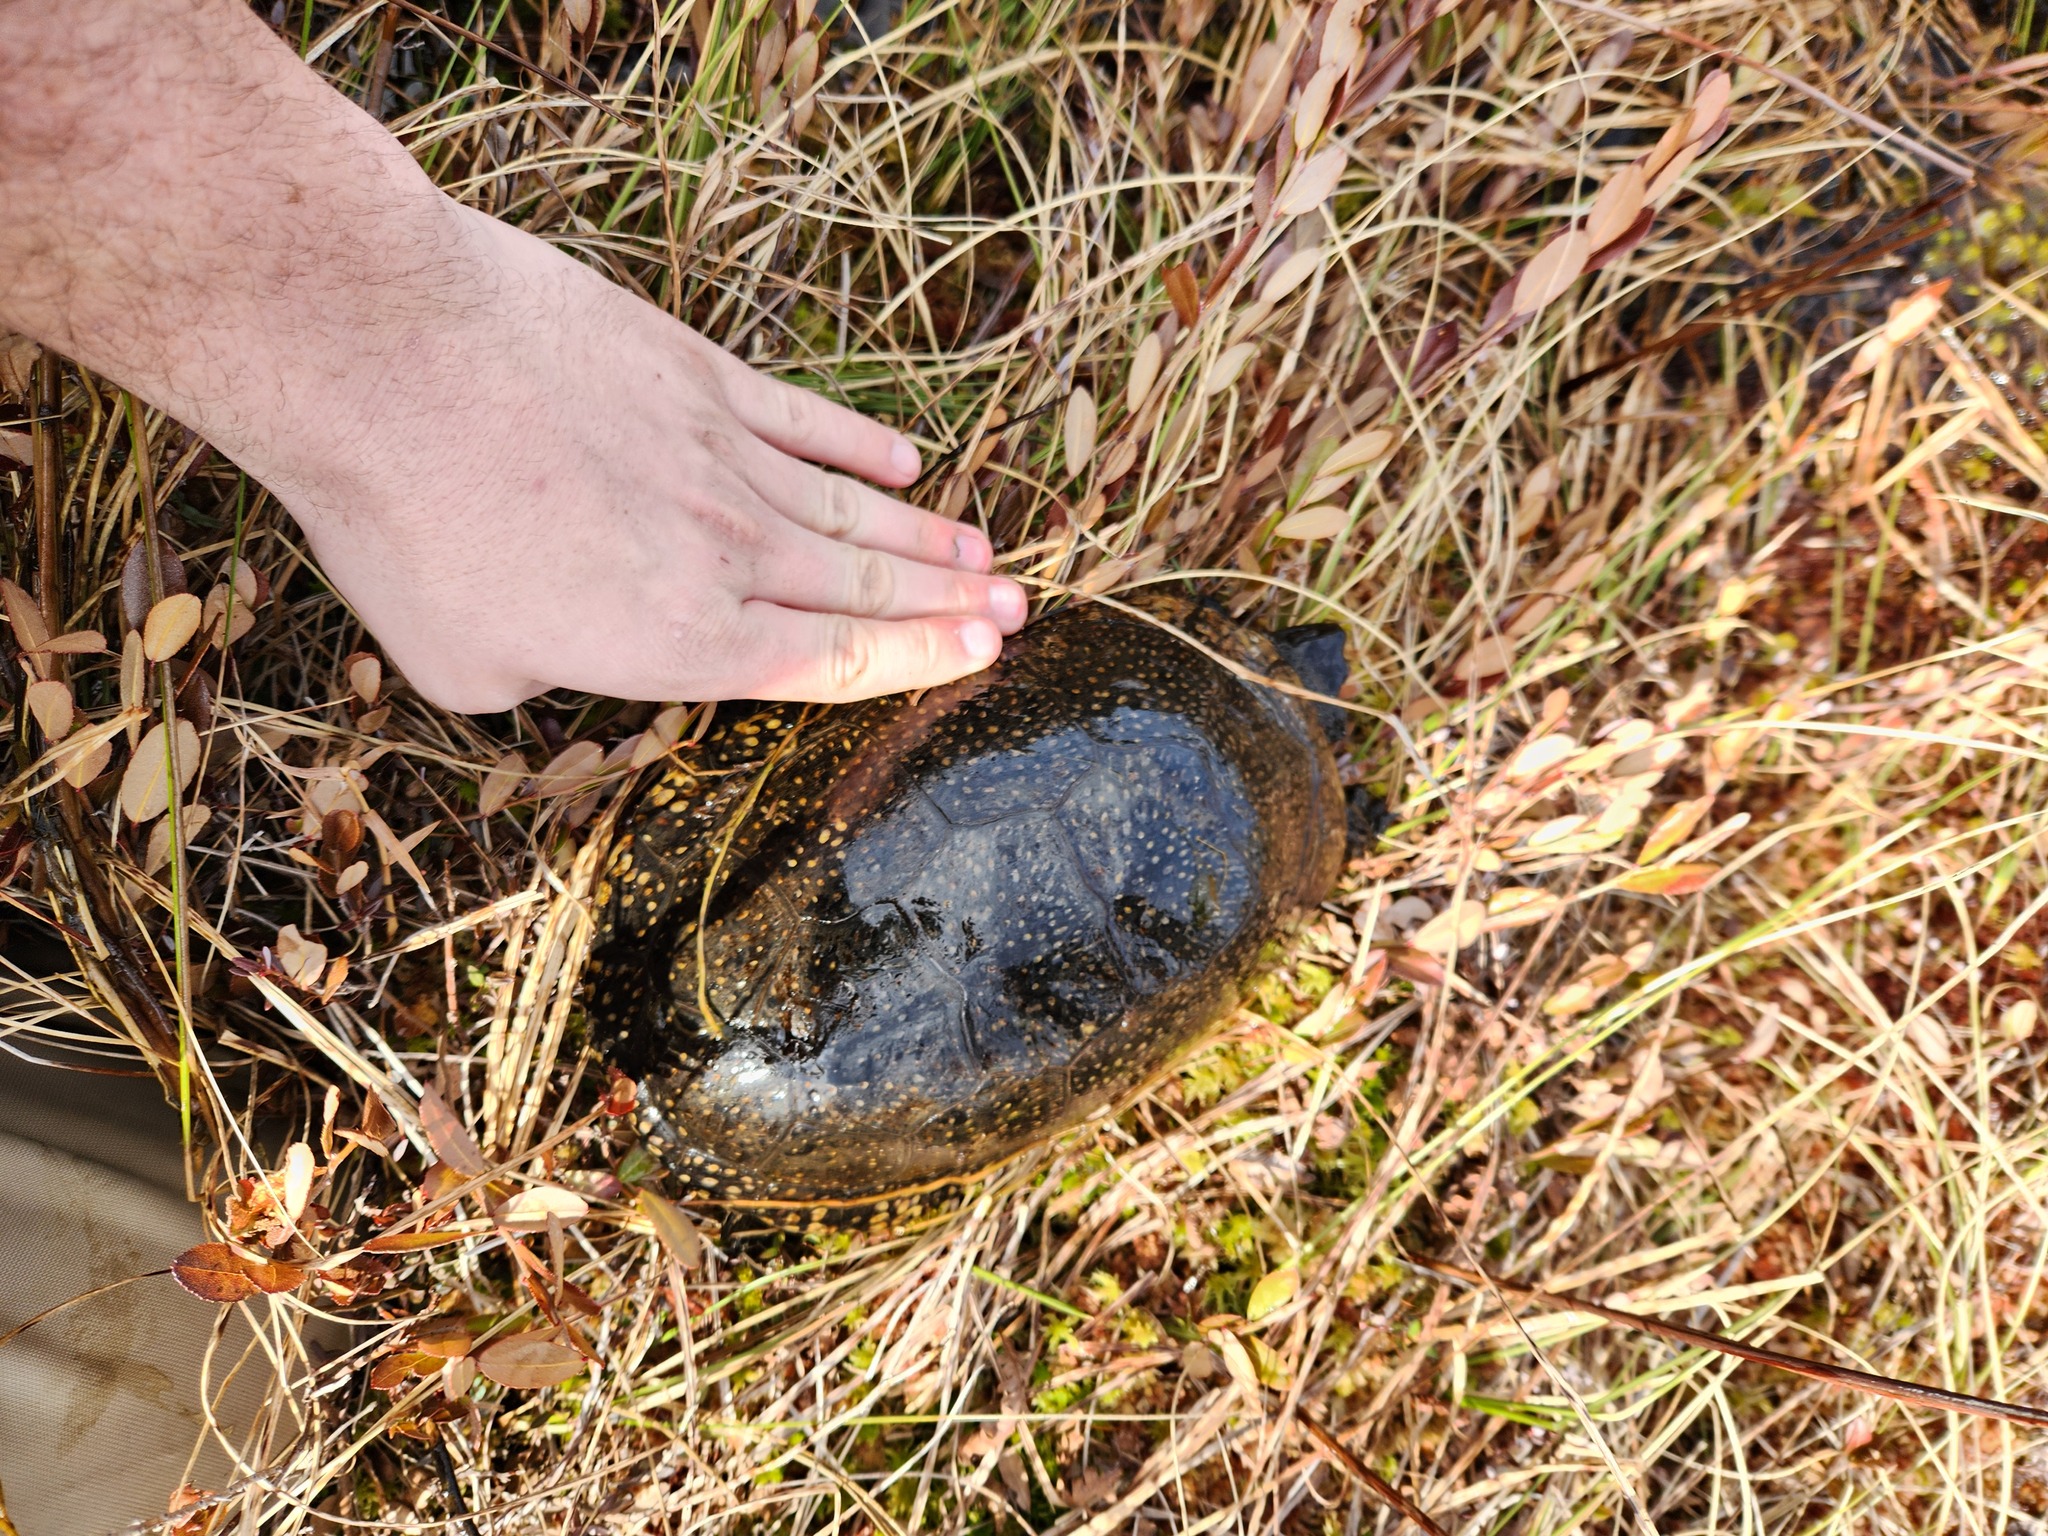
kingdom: Animalia
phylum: Chordata
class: Testudines
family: Emydidae
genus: Emys
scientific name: Emys blandingii
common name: Blanding's turtle
